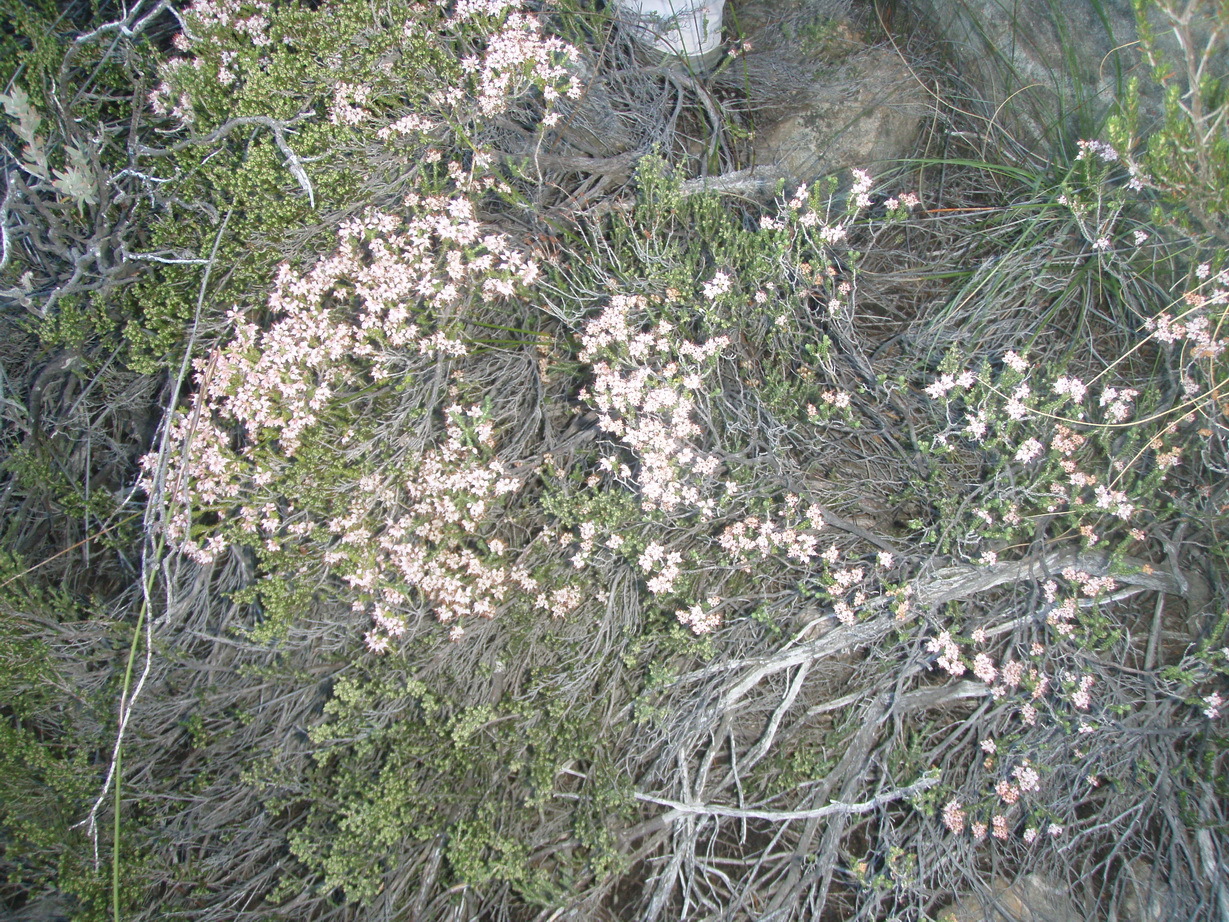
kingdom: Plantae
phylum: Tracheophyta
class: Magnoliopsida
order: Ericales
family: Ericaceae
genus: Erica
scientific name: Erica petraea
